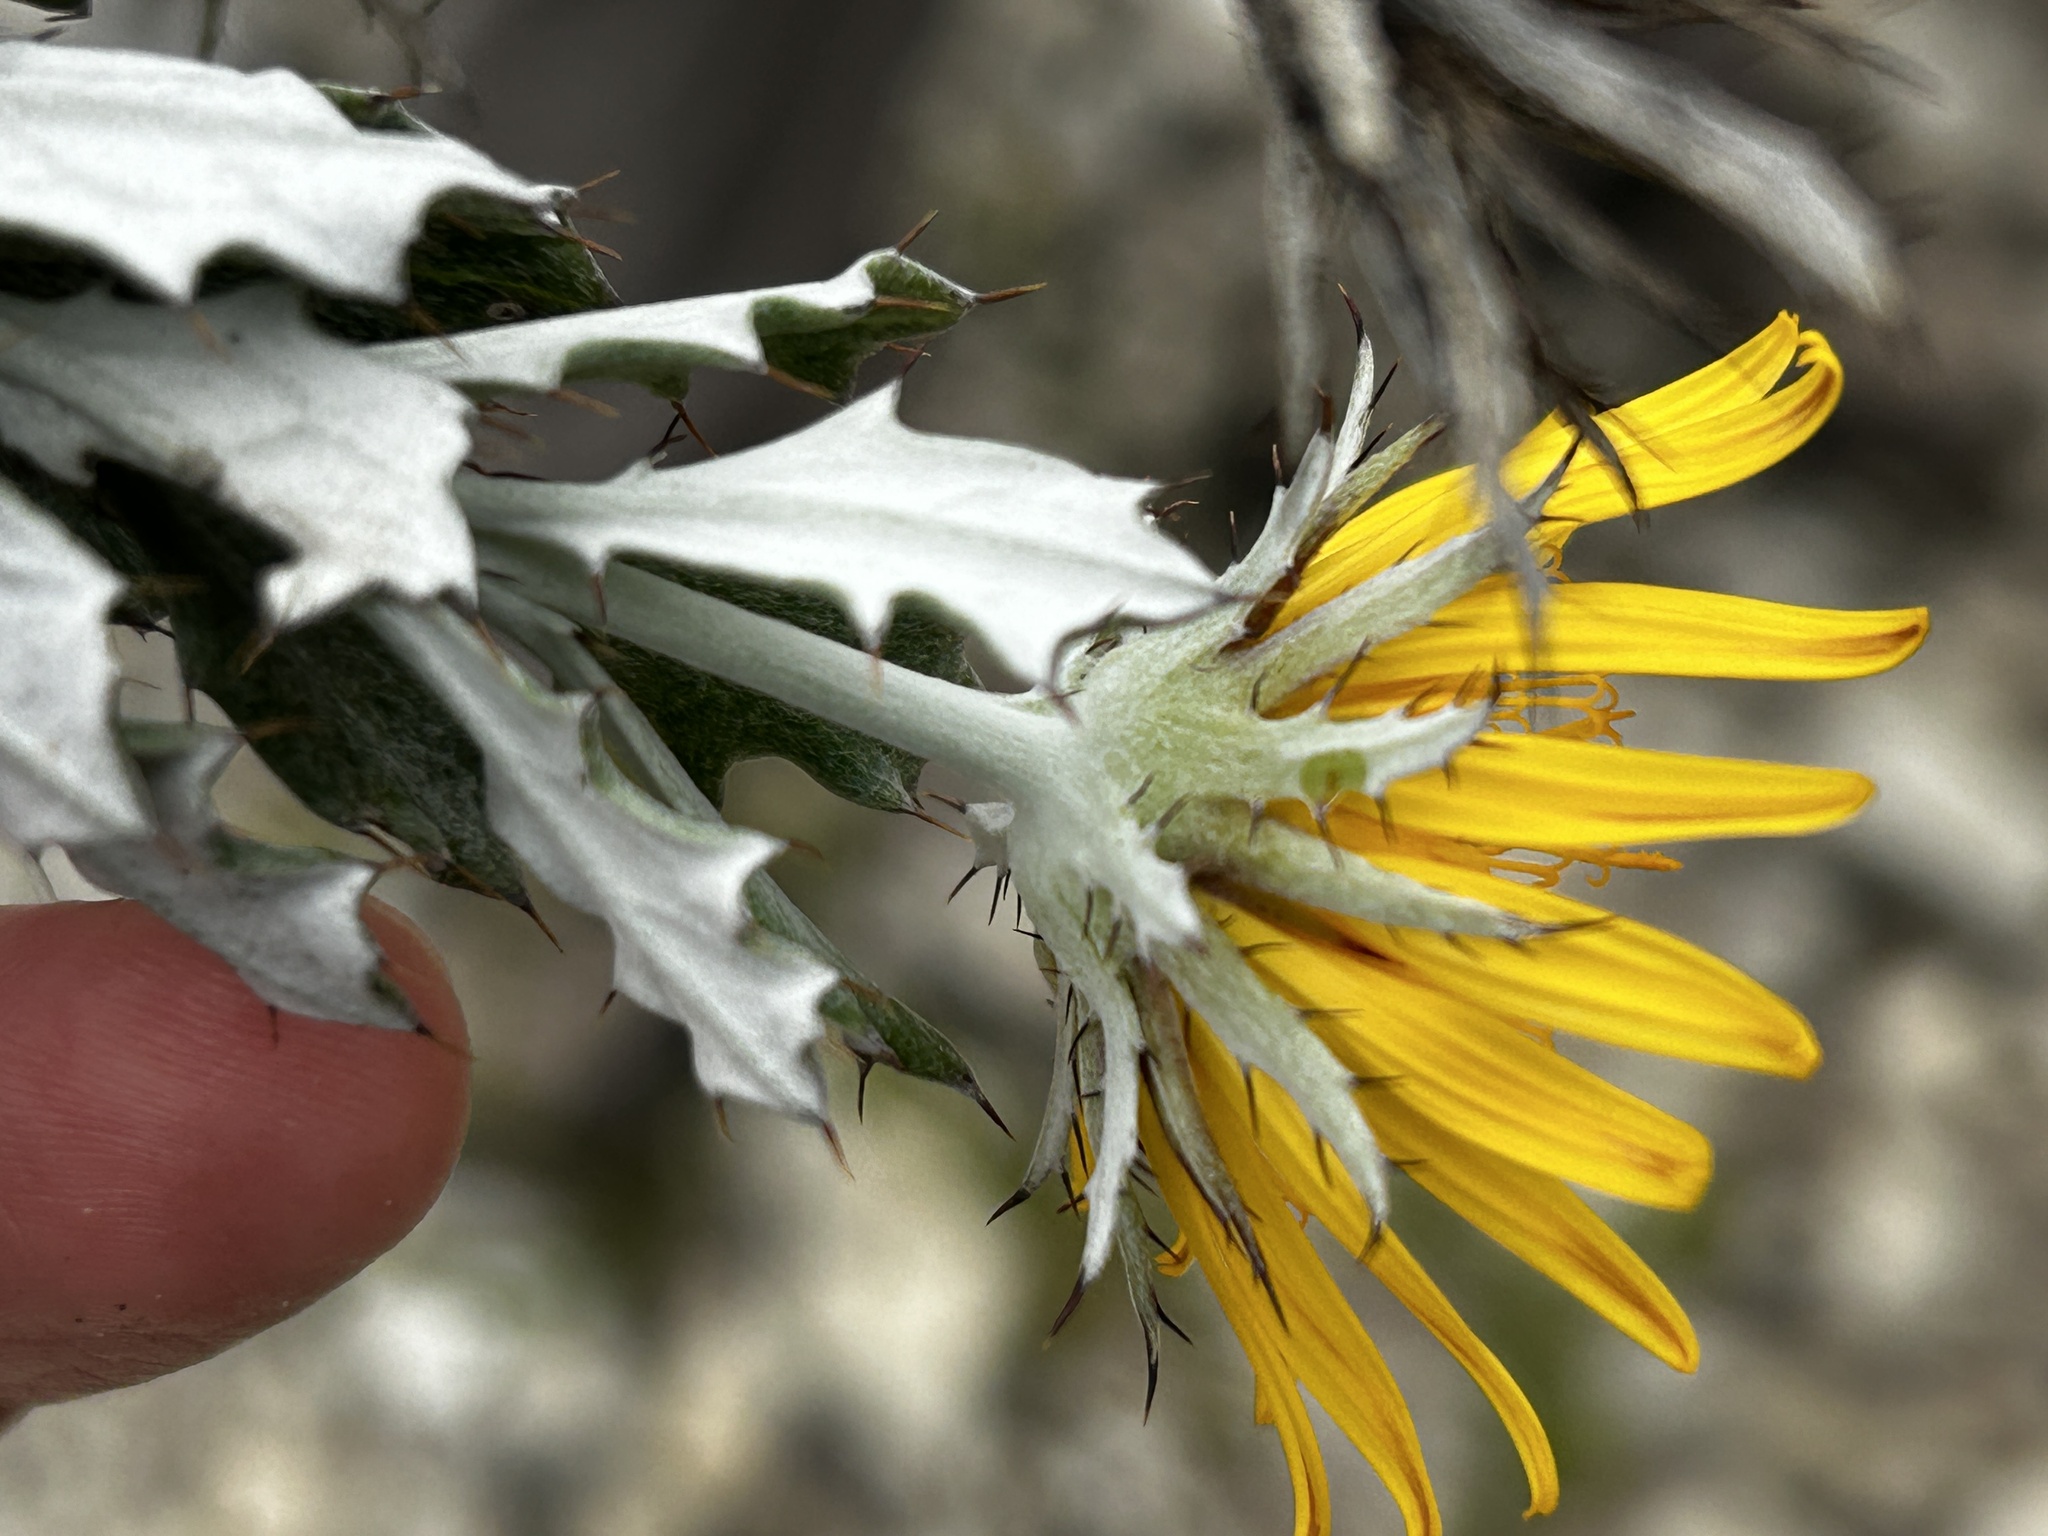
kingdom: Plantae
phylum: Tracheophyta
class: Magnoliopsida
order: Asterales
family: Asteraceae
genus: Berkheya
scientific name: Berkheya coriacea
